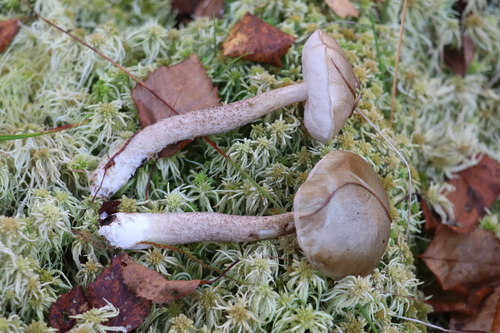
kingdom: Fungi
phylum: Basidiomycota
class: Agaricomycetes
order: Boletales
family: Boletaceae
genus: Leccinum
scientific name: Leccinum holopus
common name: Ghost bolete
